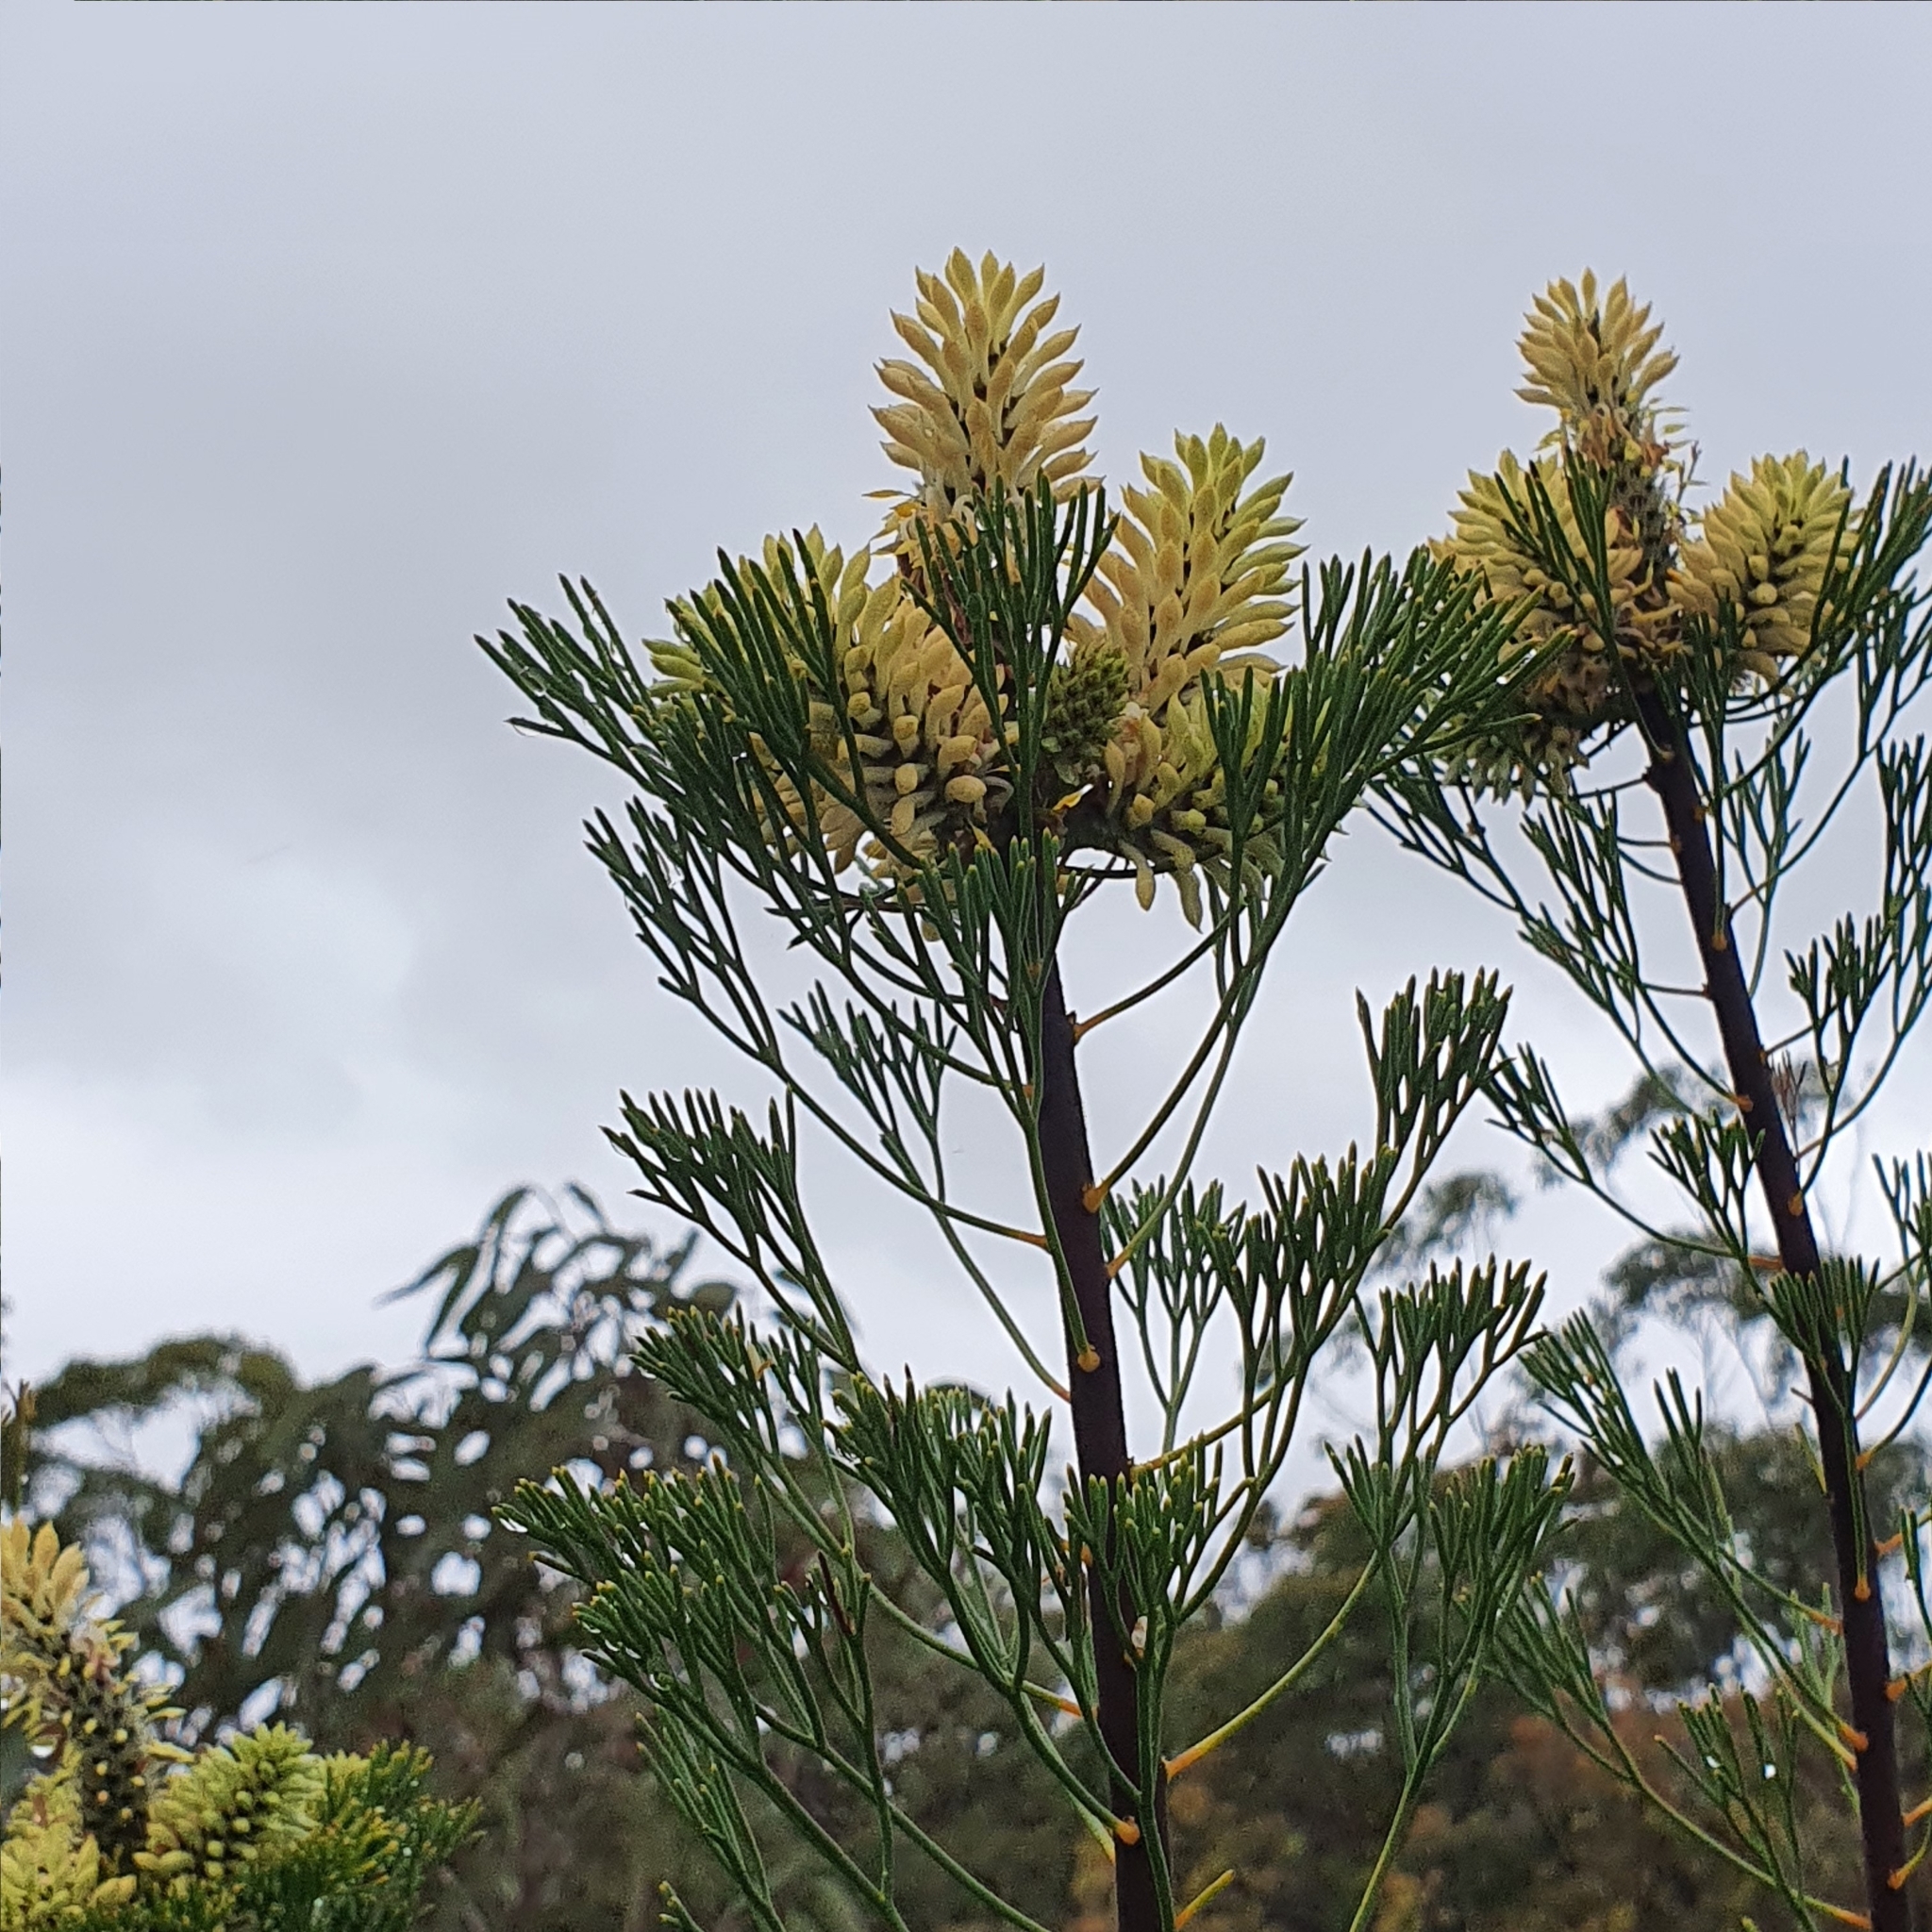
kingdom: Plantae
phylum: Tracheophyta
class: Magnoliopsida
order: Proteales
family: Proteaceae
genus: Petrophile
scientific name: Petrophile pulchella
